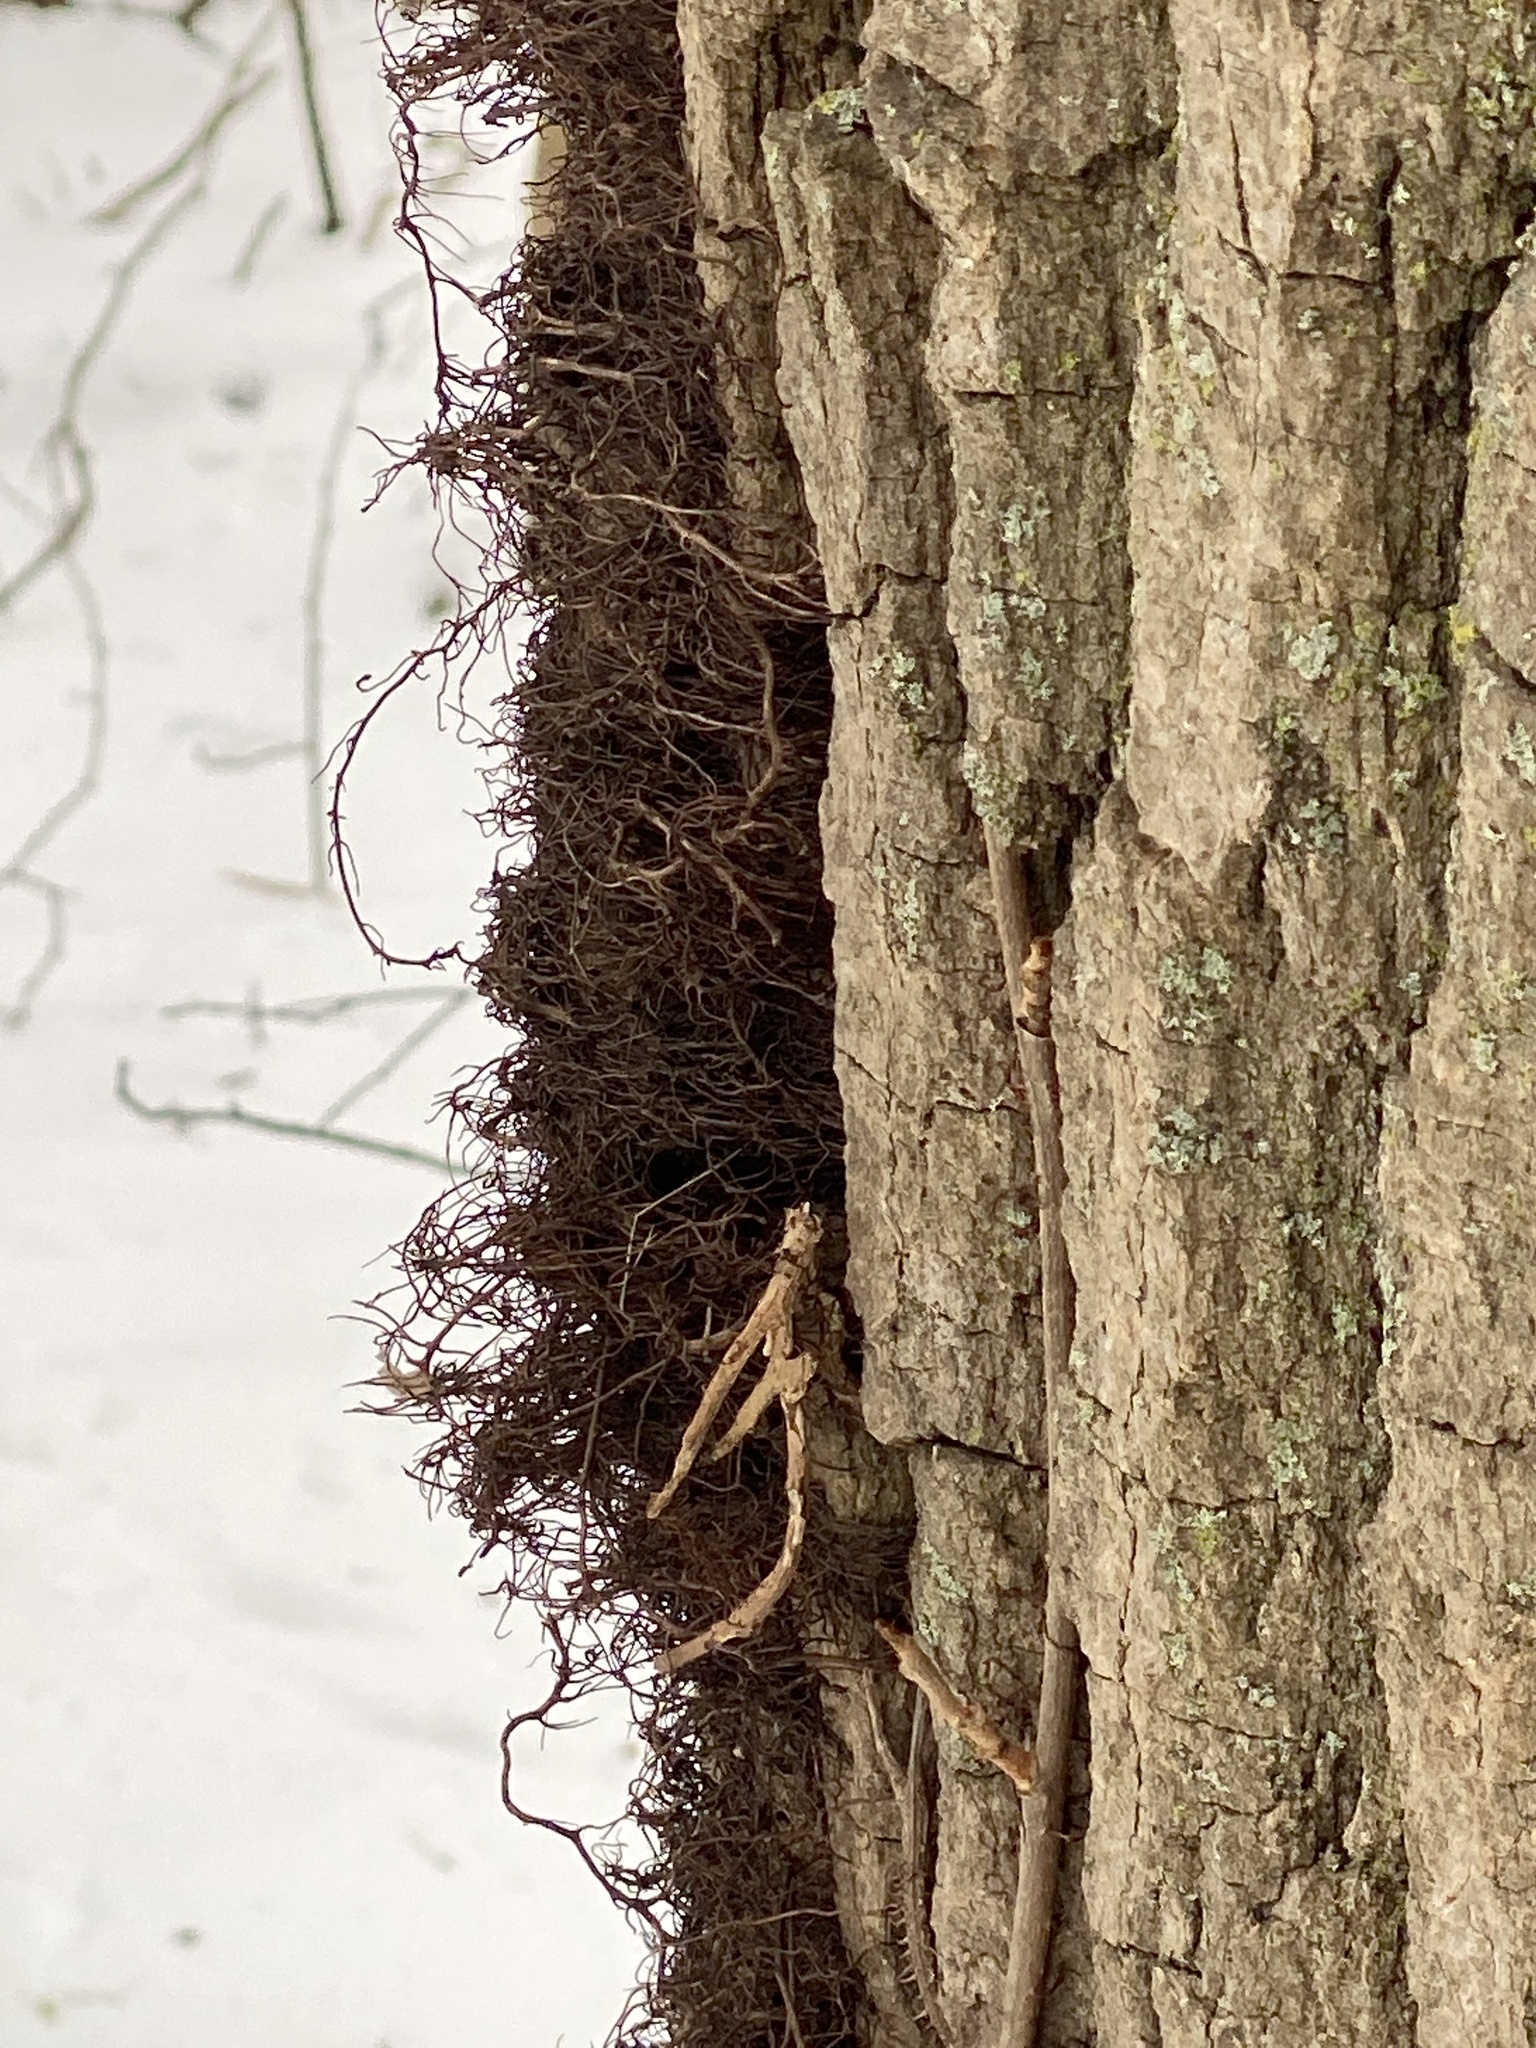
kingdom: Plantae
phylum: Tracheophyta
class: Magnoliopsida
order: Sapindales
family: Anacardiaceae
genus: Toxicodendron
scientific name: Toxicodendron radicans
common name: Poison ivy
